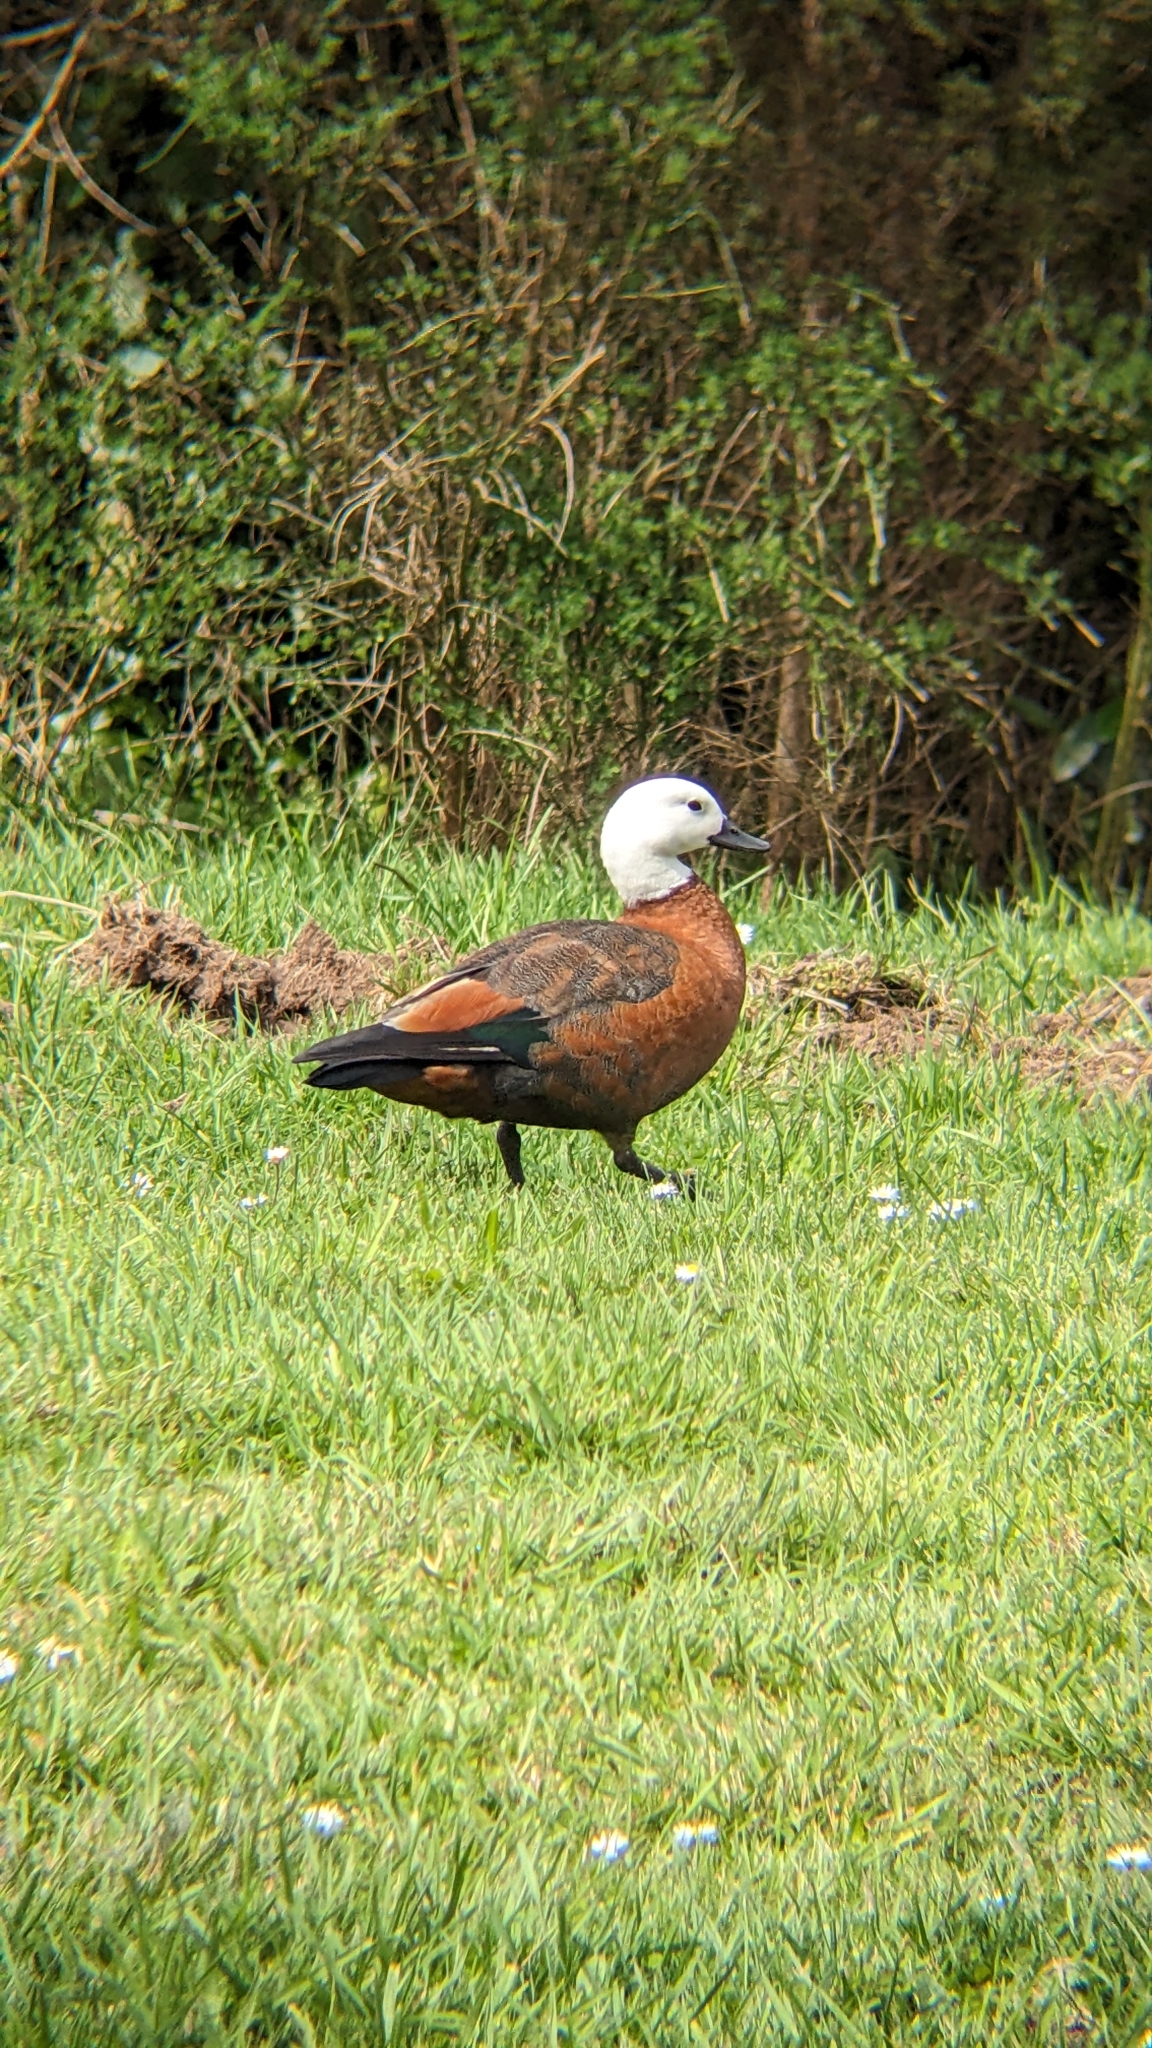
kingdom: Animalia
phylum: Chordata
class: Aves
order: Anseriformes
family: Anatidae
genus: Tadorna
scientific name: Tadorna variegata
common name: Paradise shelduck
